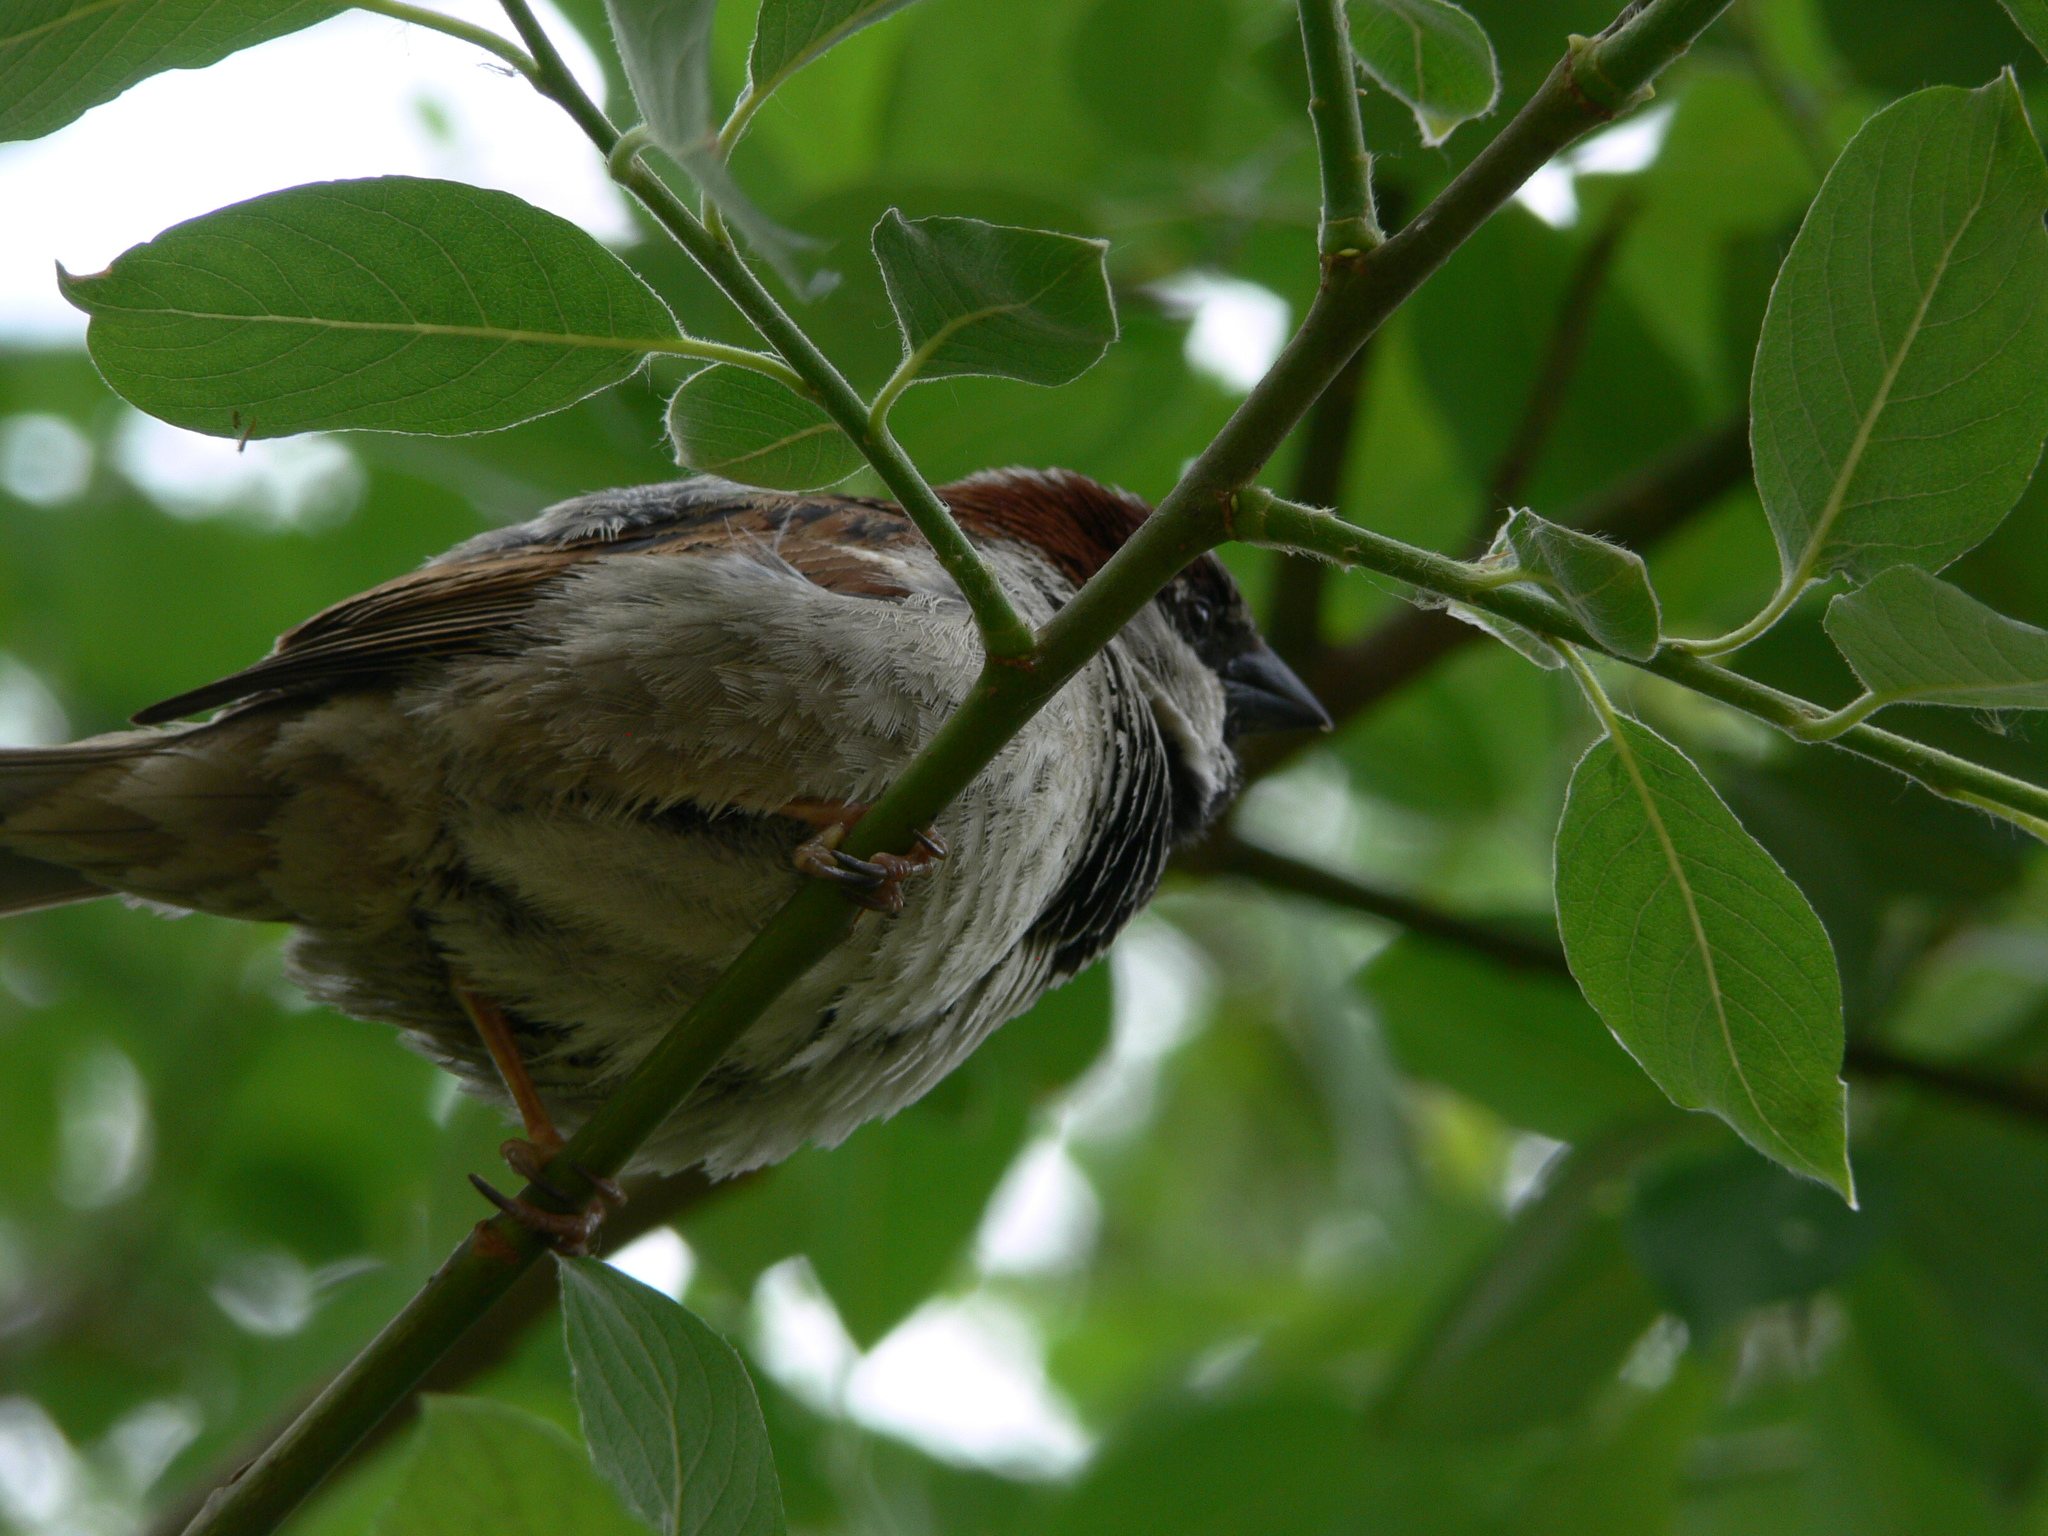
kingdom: Animalia
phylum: Chordata
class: Aves
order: Passeriformes
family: Passeridae
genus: Passer
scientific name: Passer domesticus
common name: House sparrow
